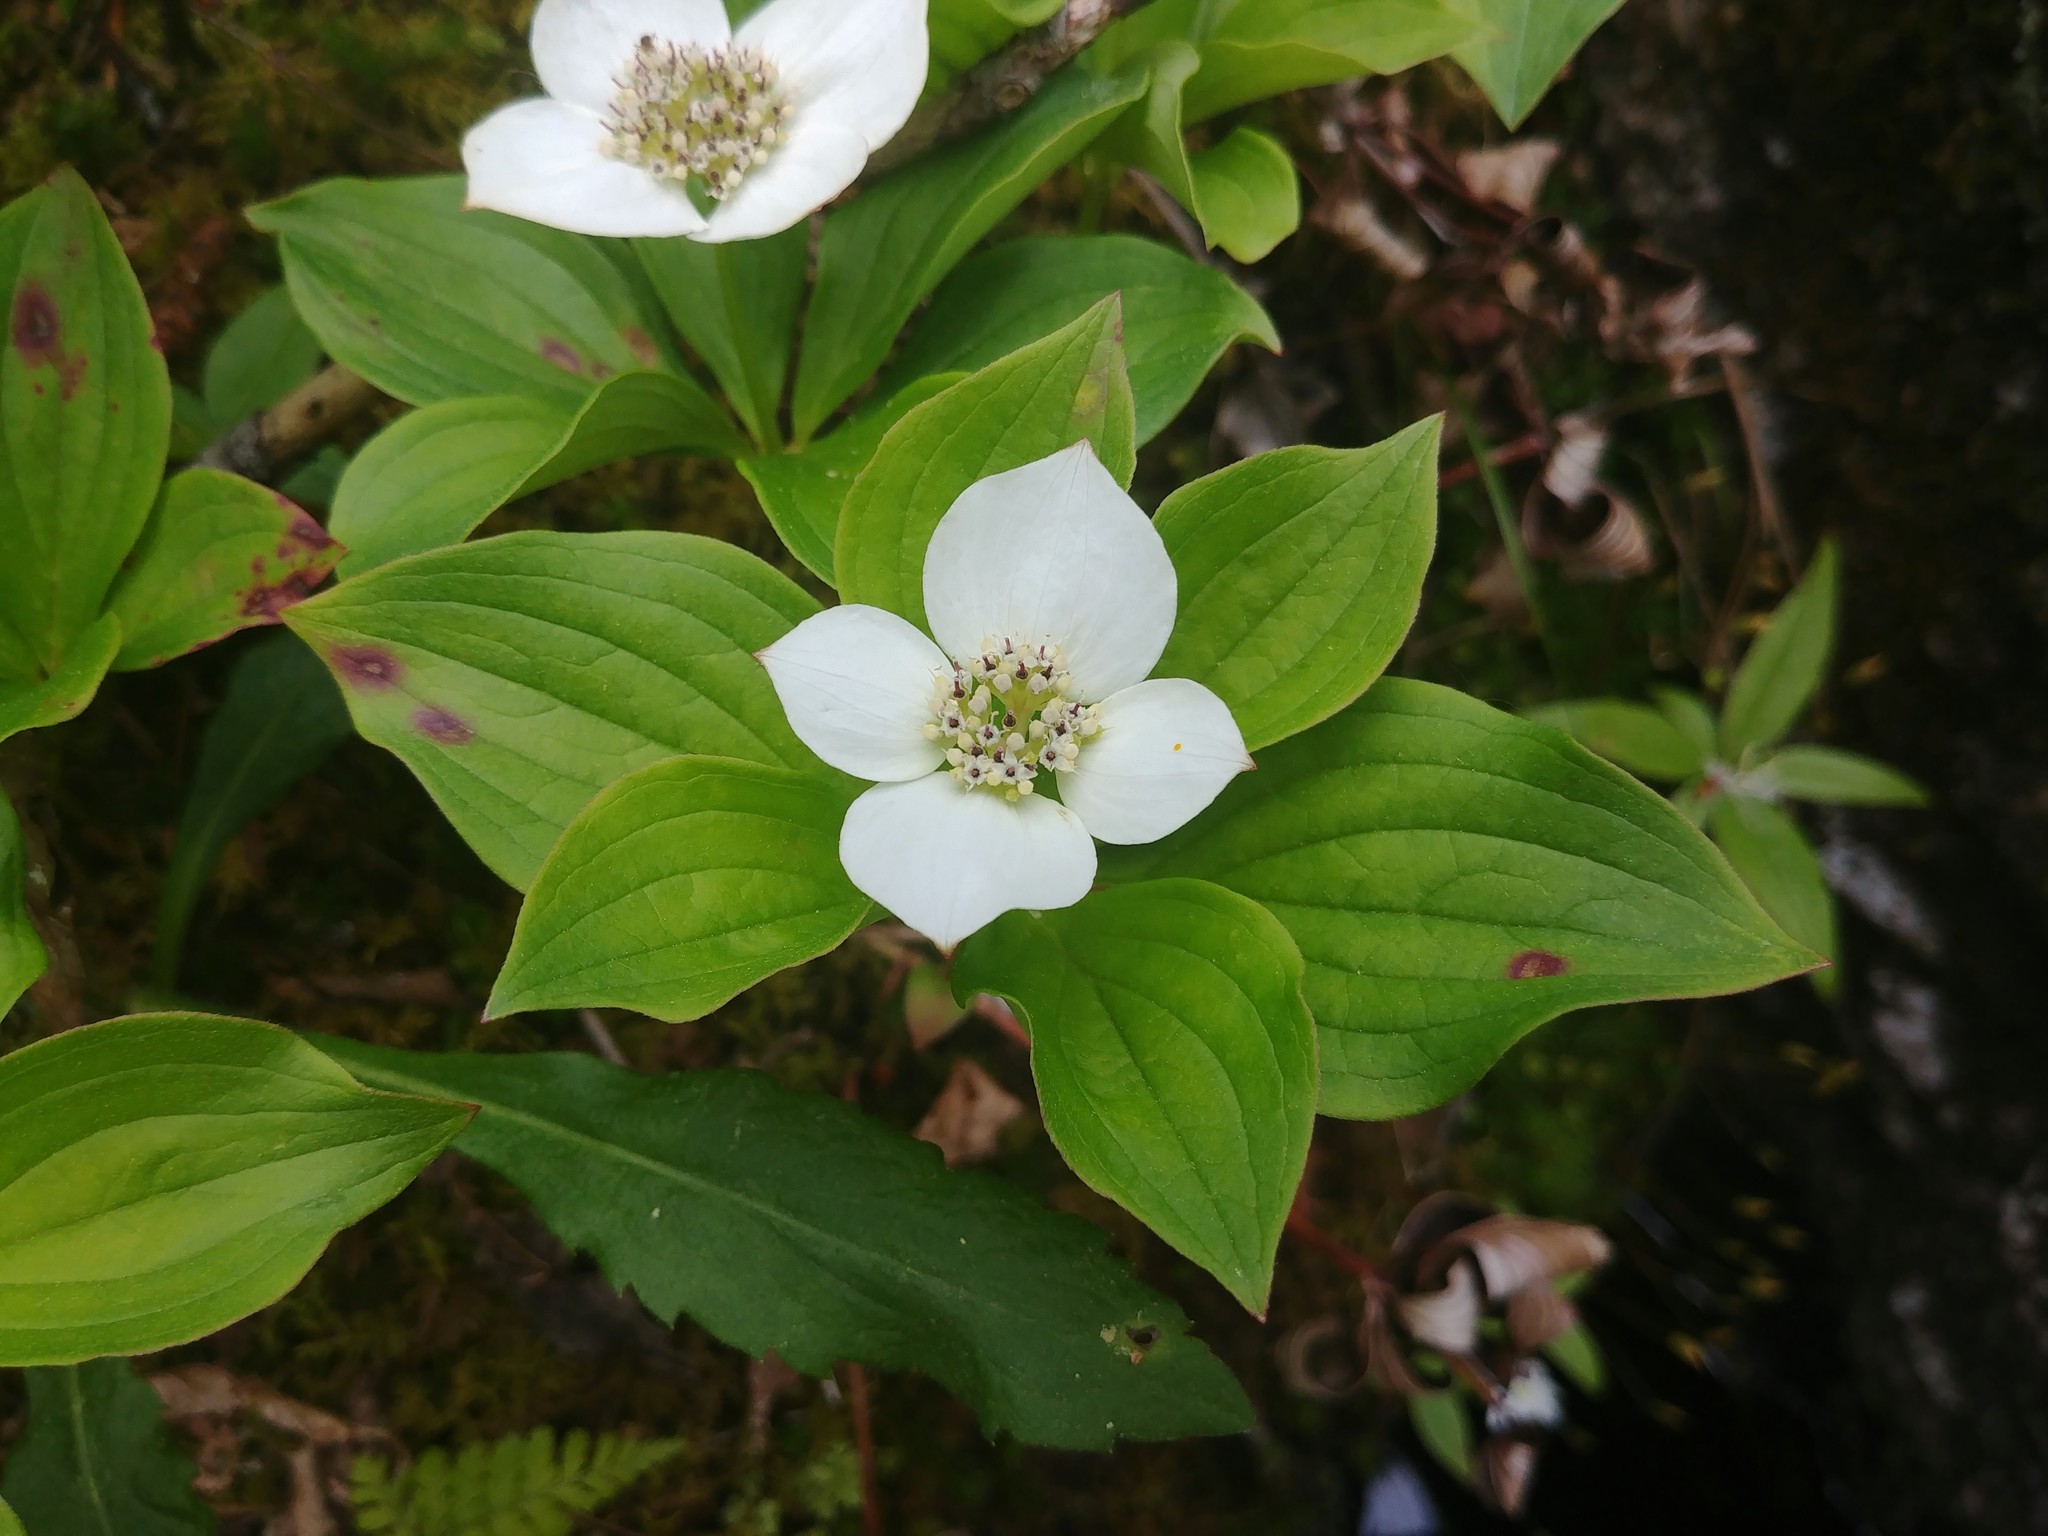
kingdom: Plantae
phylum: Tracheophyta
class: Magnoliopsida
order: Cornales
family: Cornaceae
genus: Cornus
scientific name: Cornus canadensis
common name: Creeping dogwood
